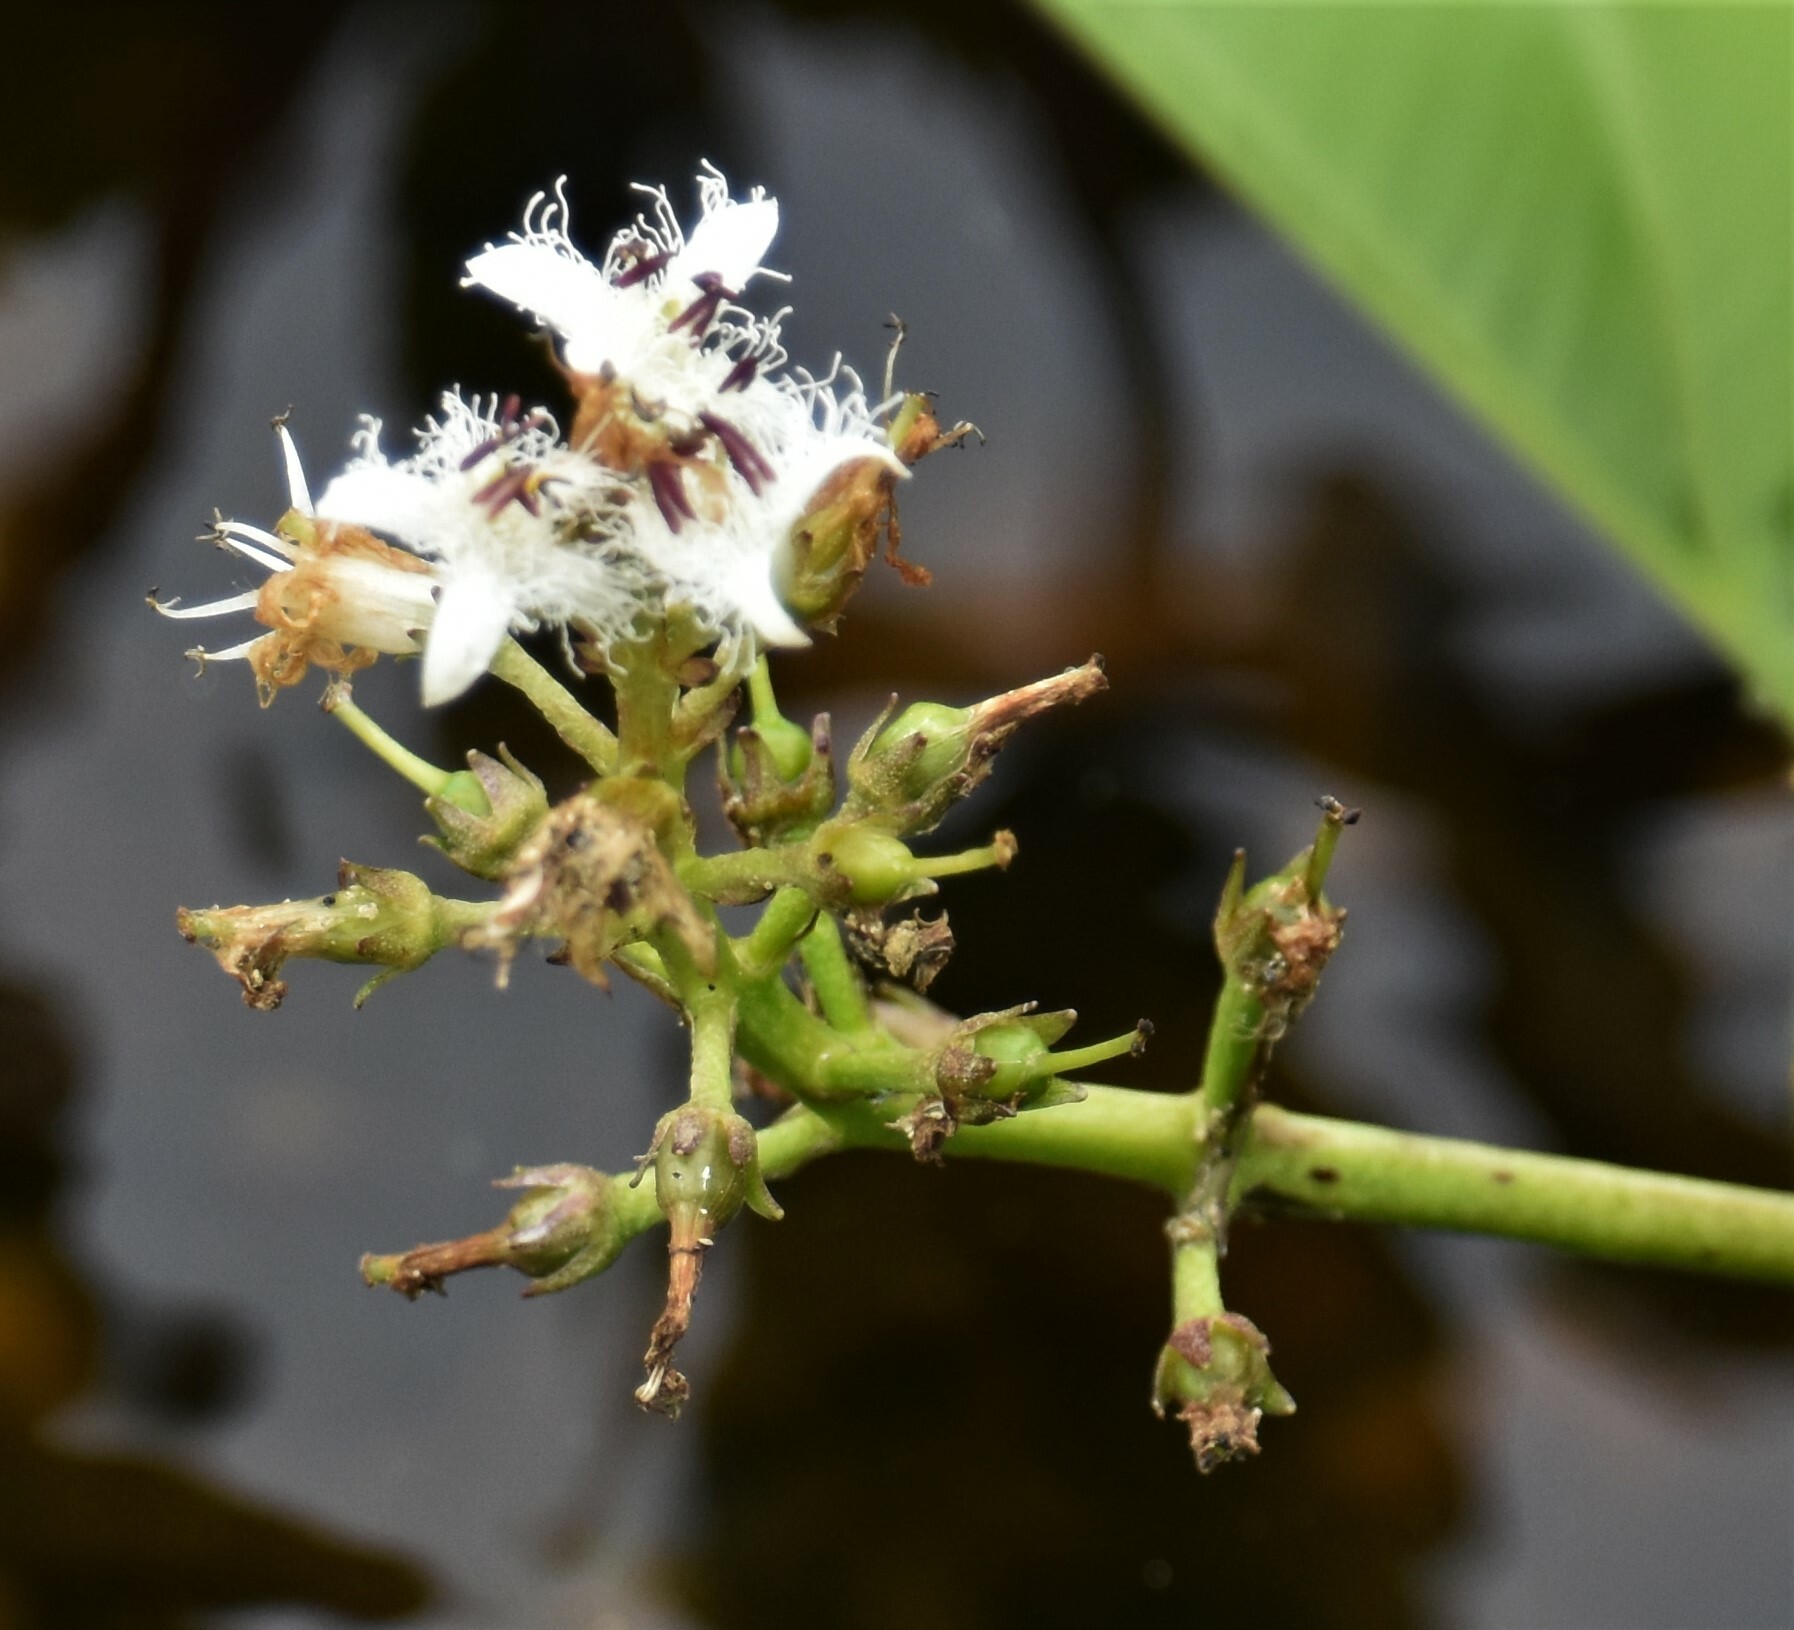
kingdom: Plantae
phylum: Tracheophyta
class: Magnoliopsida
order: Asterales
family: Menyanthaceae
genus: Menyanthes
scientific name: Menyanthes trifoliata
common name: Bogbean
